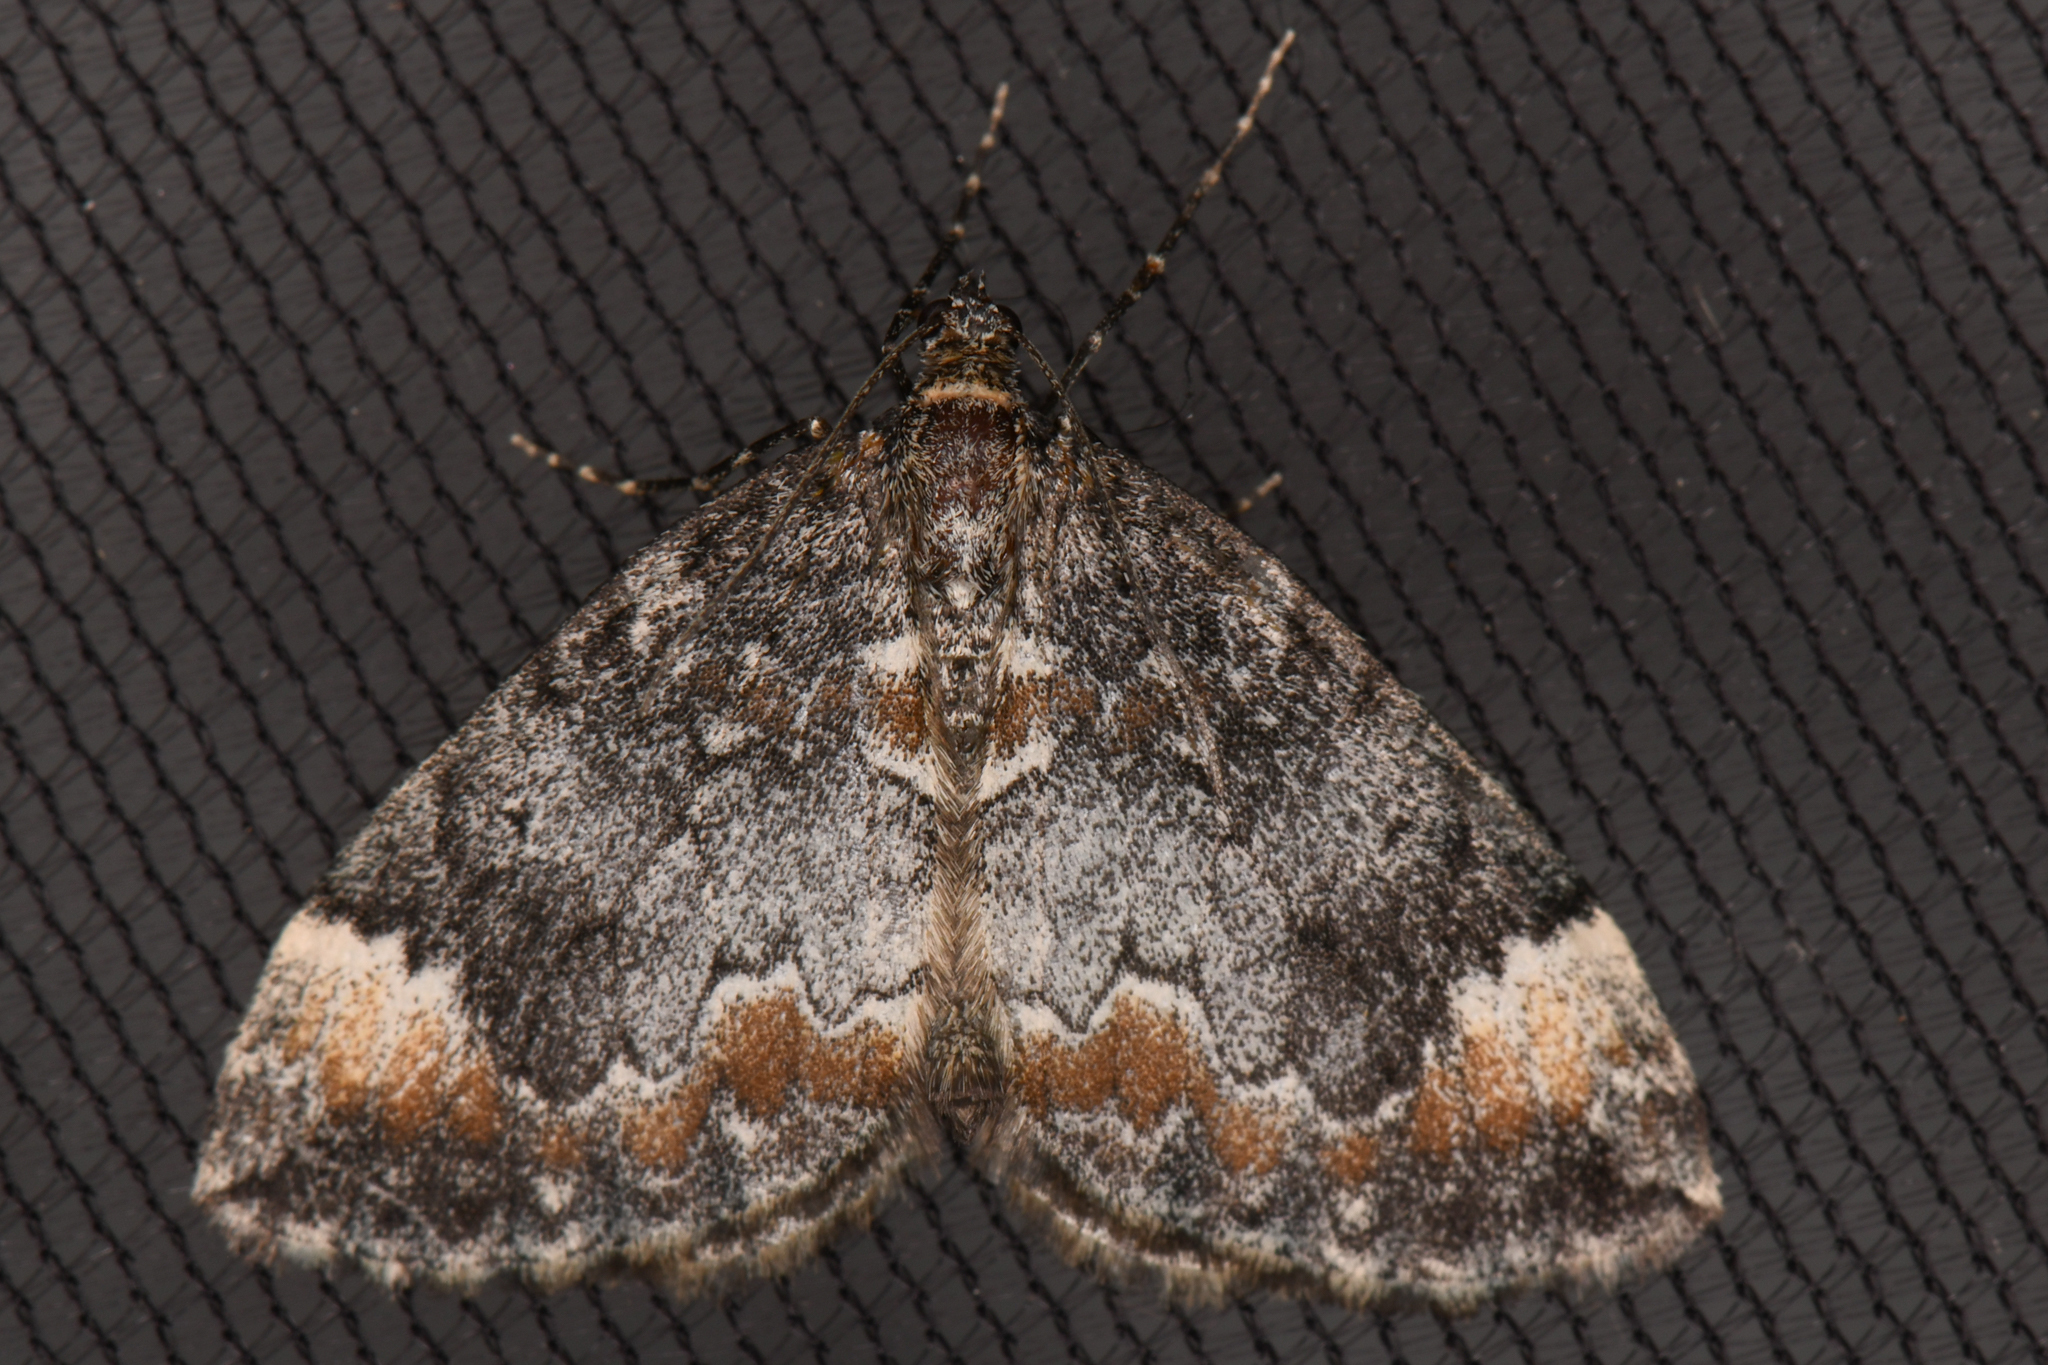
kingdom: Animalia
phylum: Arthropoda
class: Insecta
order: Lepidoptera
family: Geometridae
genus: Dysstroma
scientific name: Dysstroma citrata
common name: Dark marbled carpet
